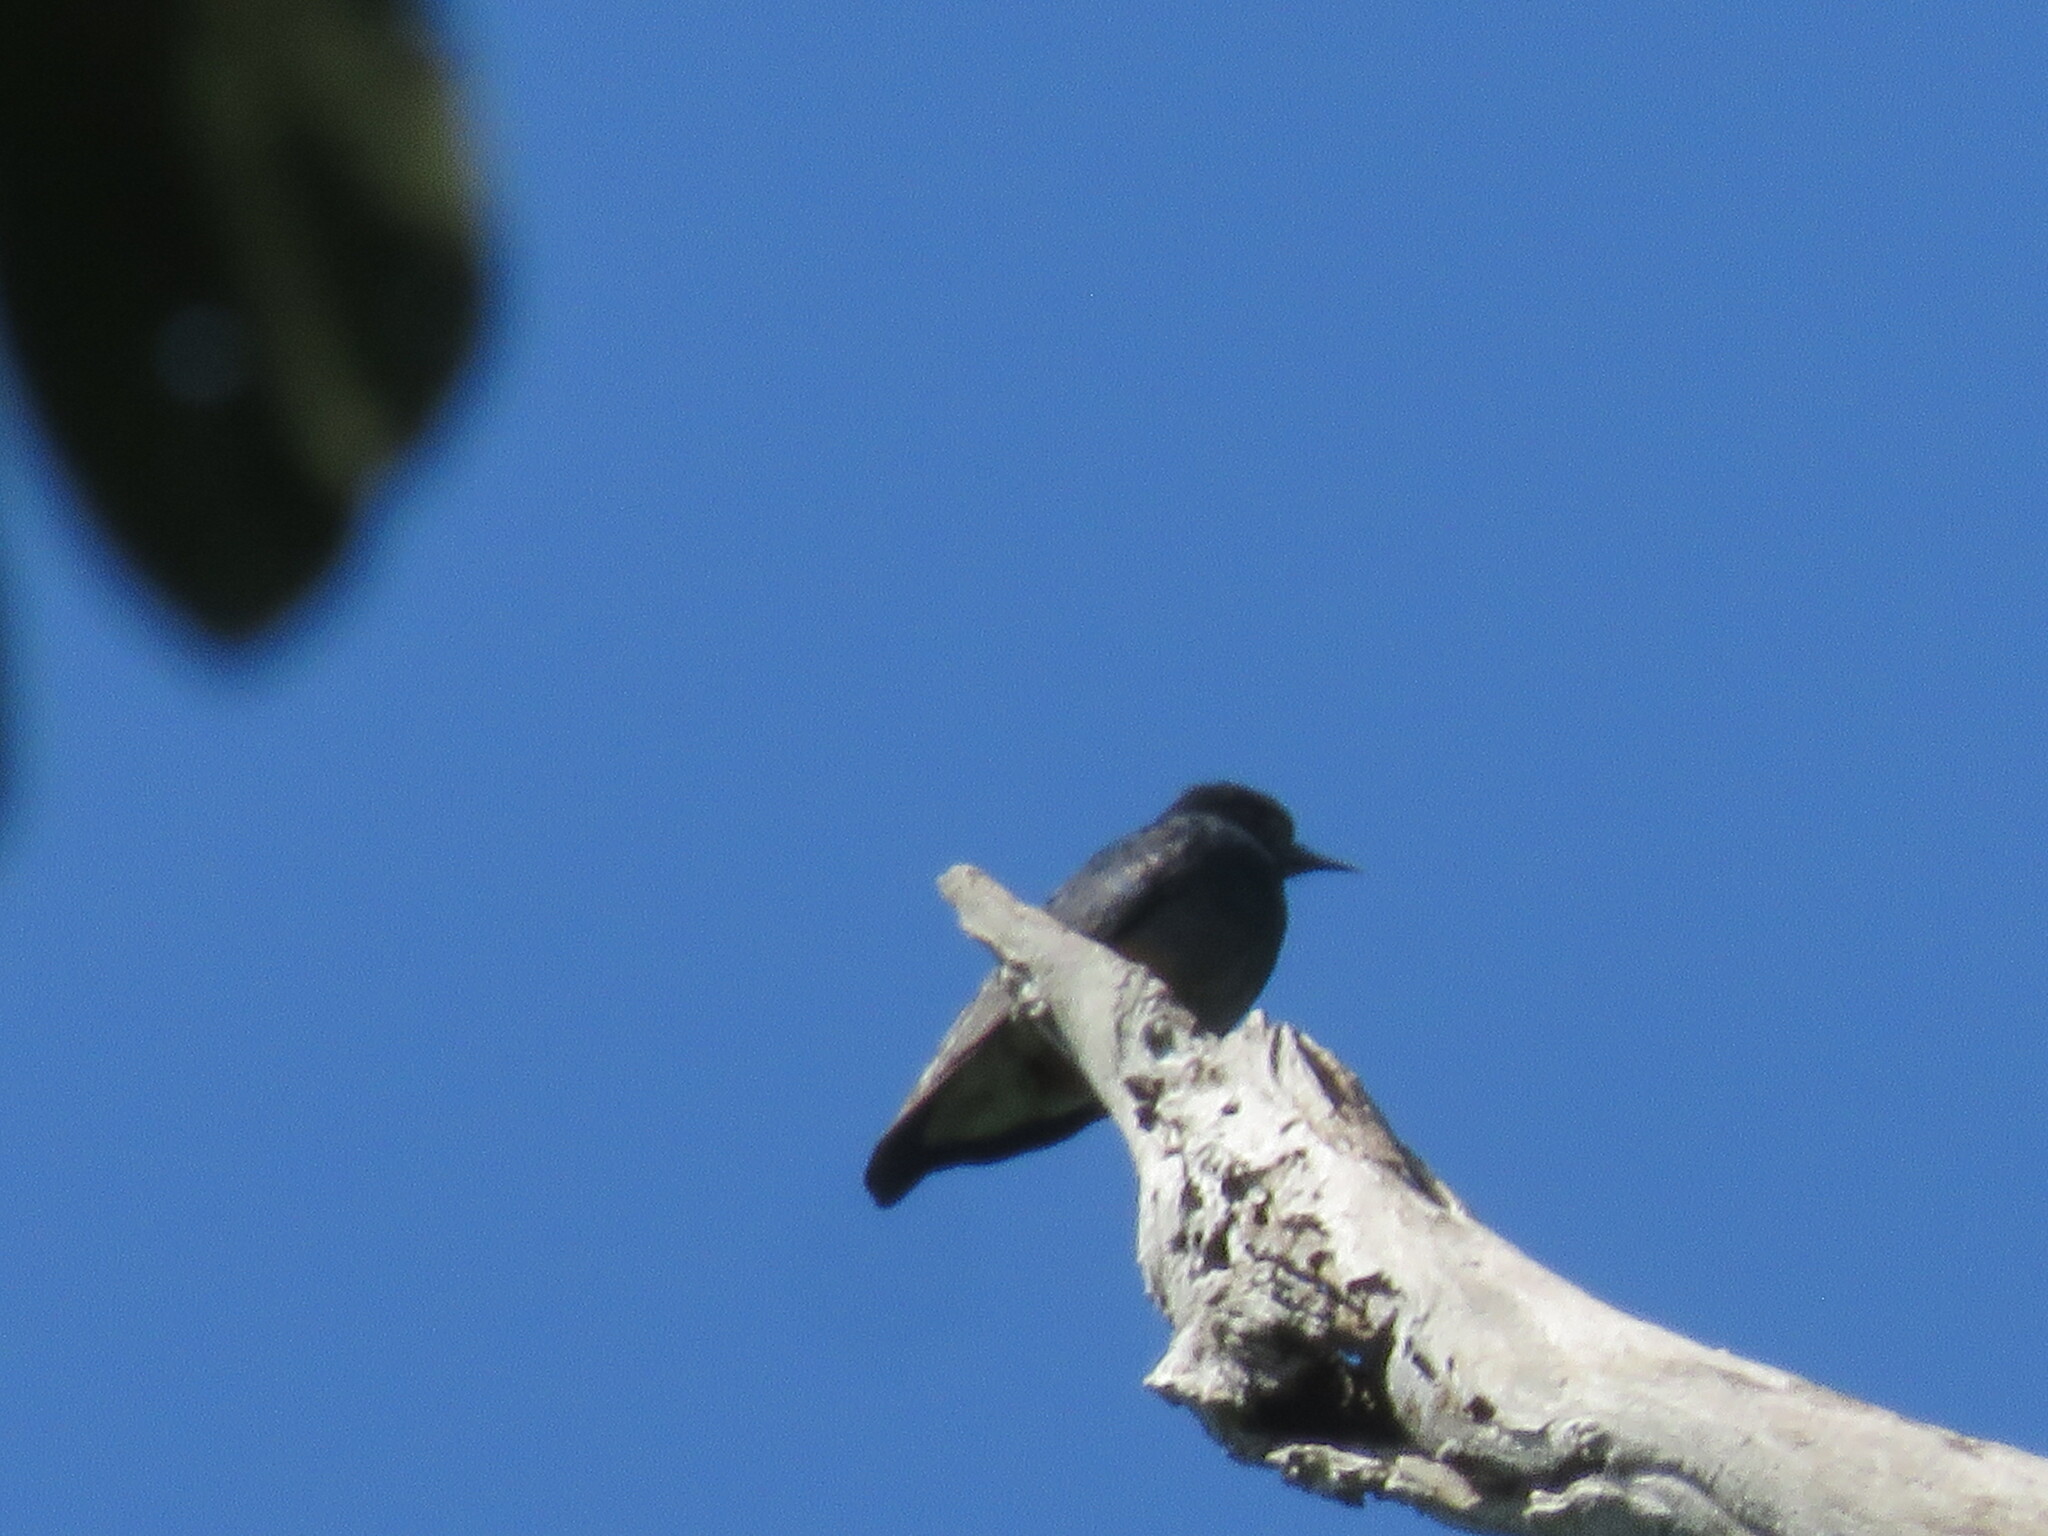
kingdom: Animalia
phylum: Chordata
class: Aves
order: Piciformes
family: Bucconidae
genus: Chelidoptera
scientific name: Chelidoptera tenebrosa
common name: Swallow-winged puffbird
